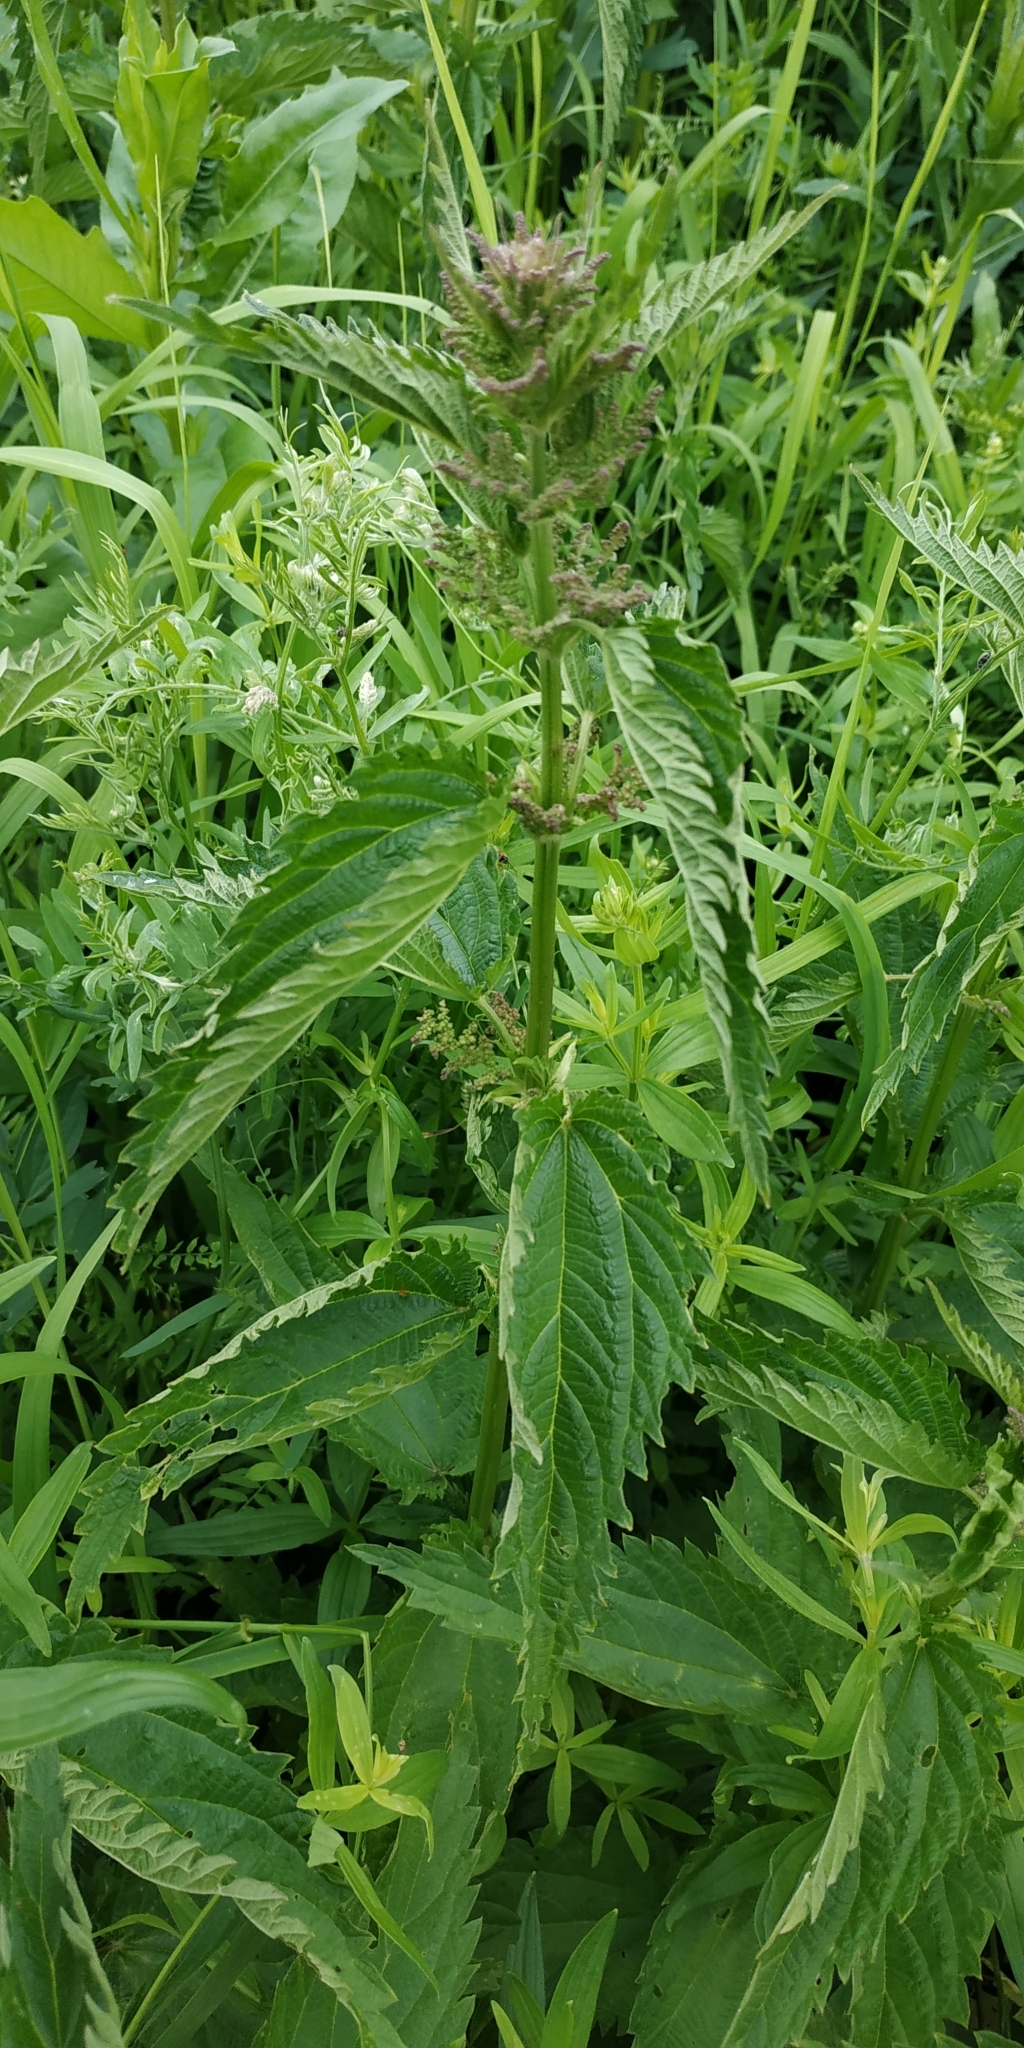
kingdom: Plantae
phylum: Tracheophyta
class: Magnoliopsida
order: Rosales
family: Urticaceae
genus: Urtica
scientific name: Urtica dioica
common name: Common nettle
